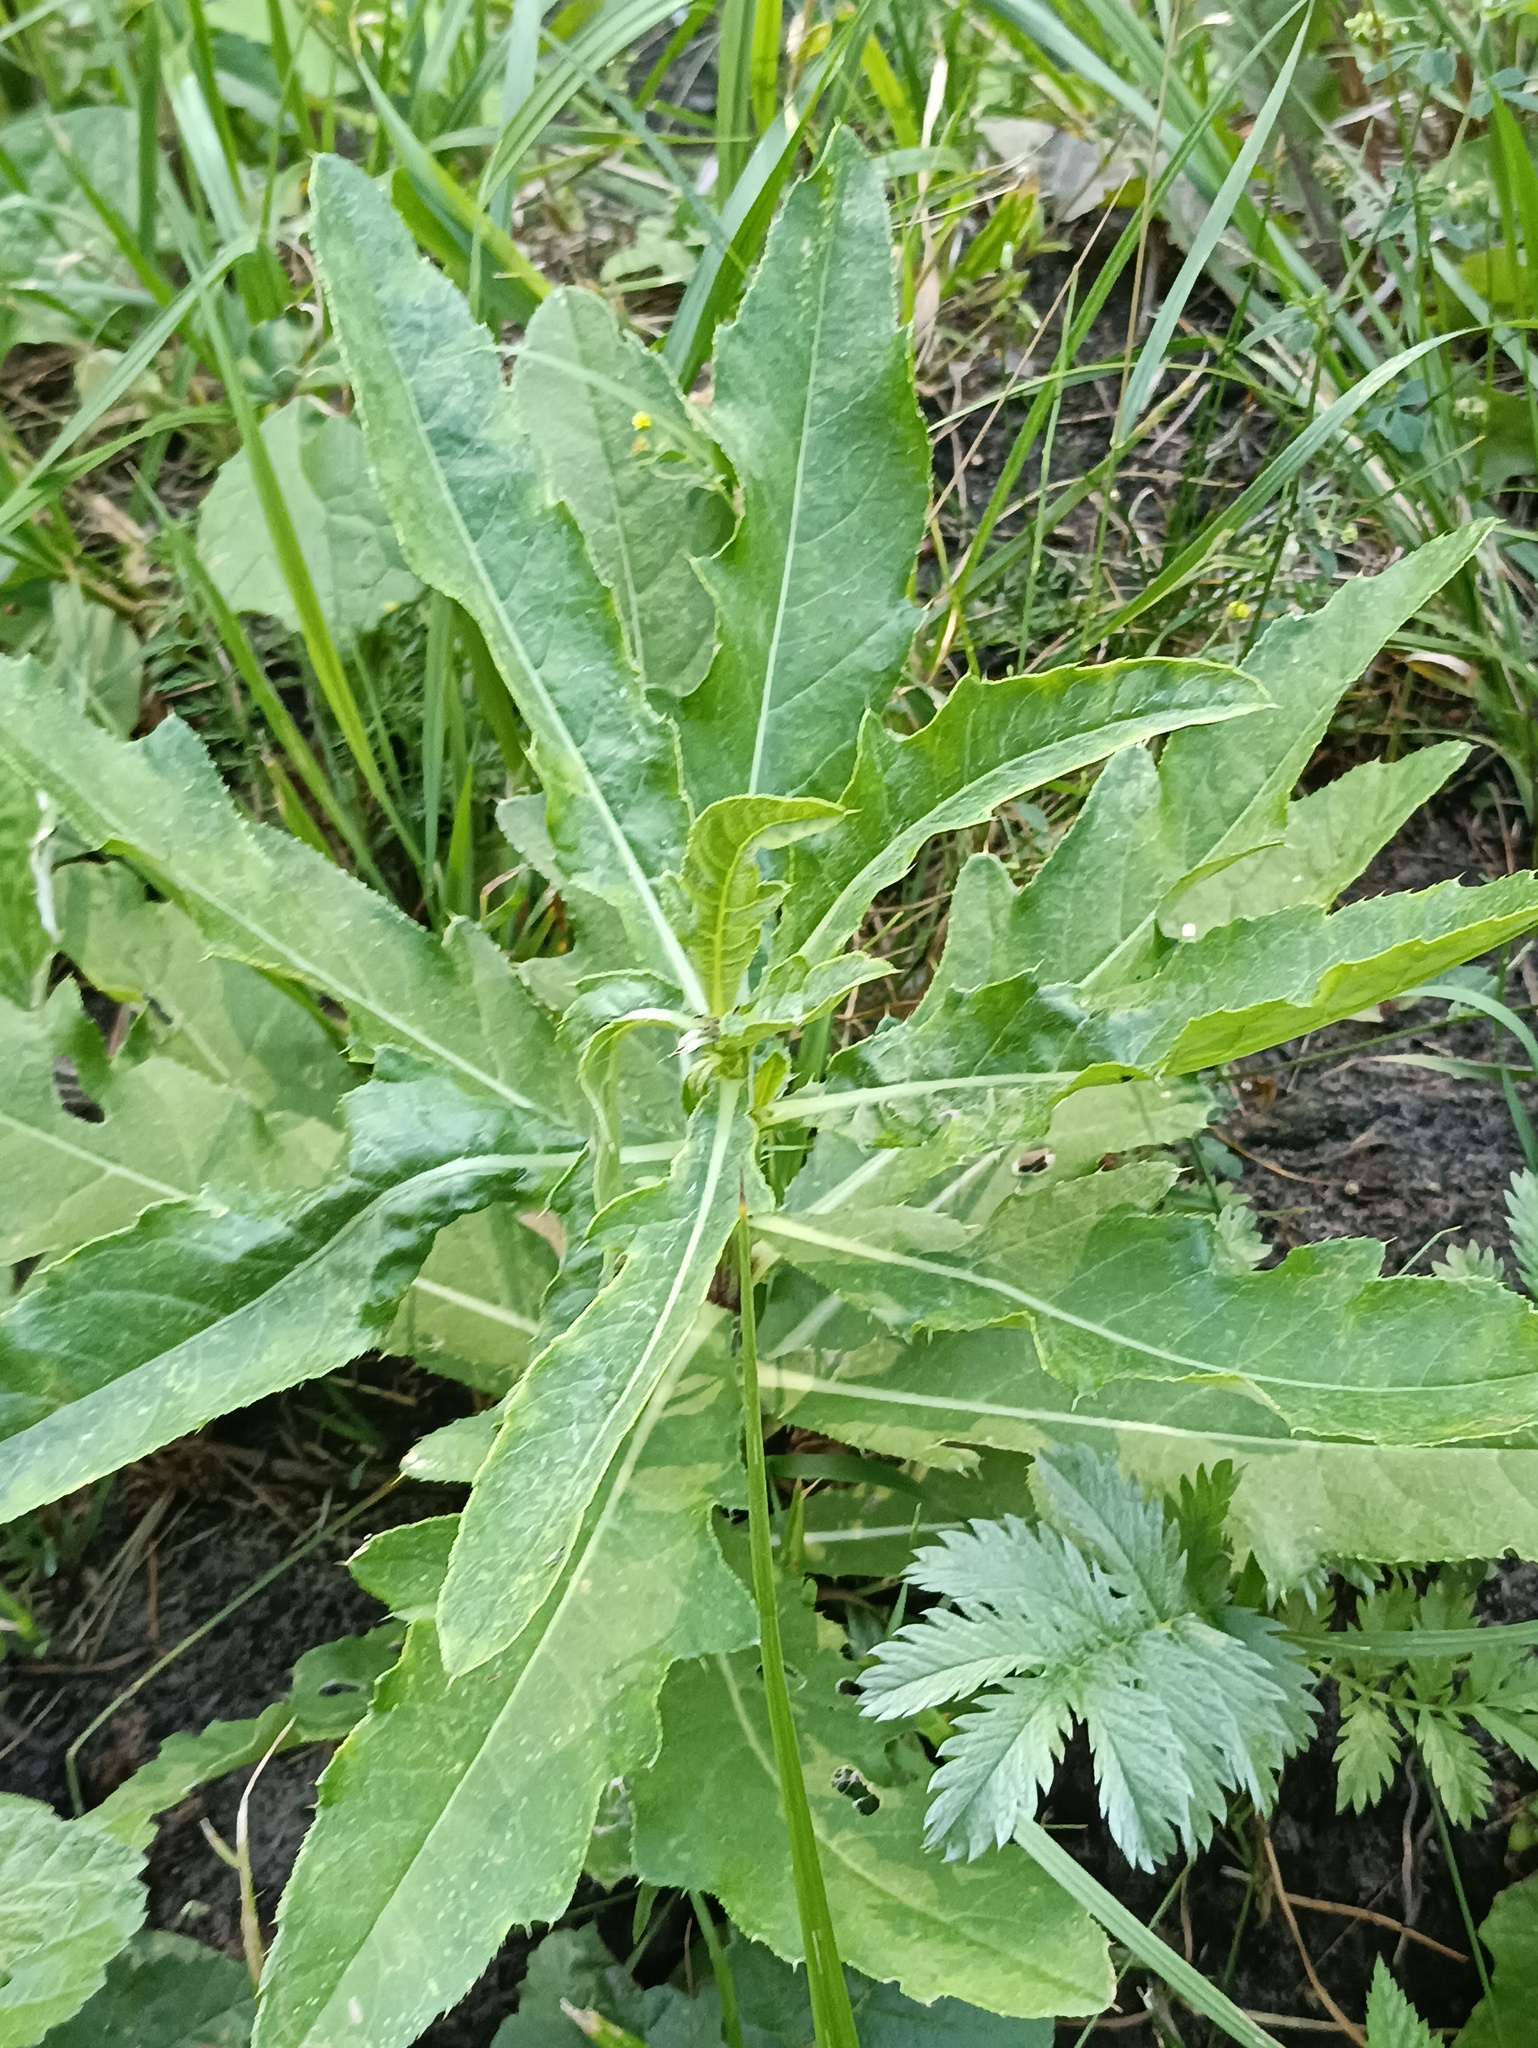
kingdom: Plantae
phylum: Tracheophyta
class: Magnoliopsida
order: Asterales
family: Asteraceae
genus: Cirsium
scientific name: Cirsium arvense
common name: Creeping thistle
